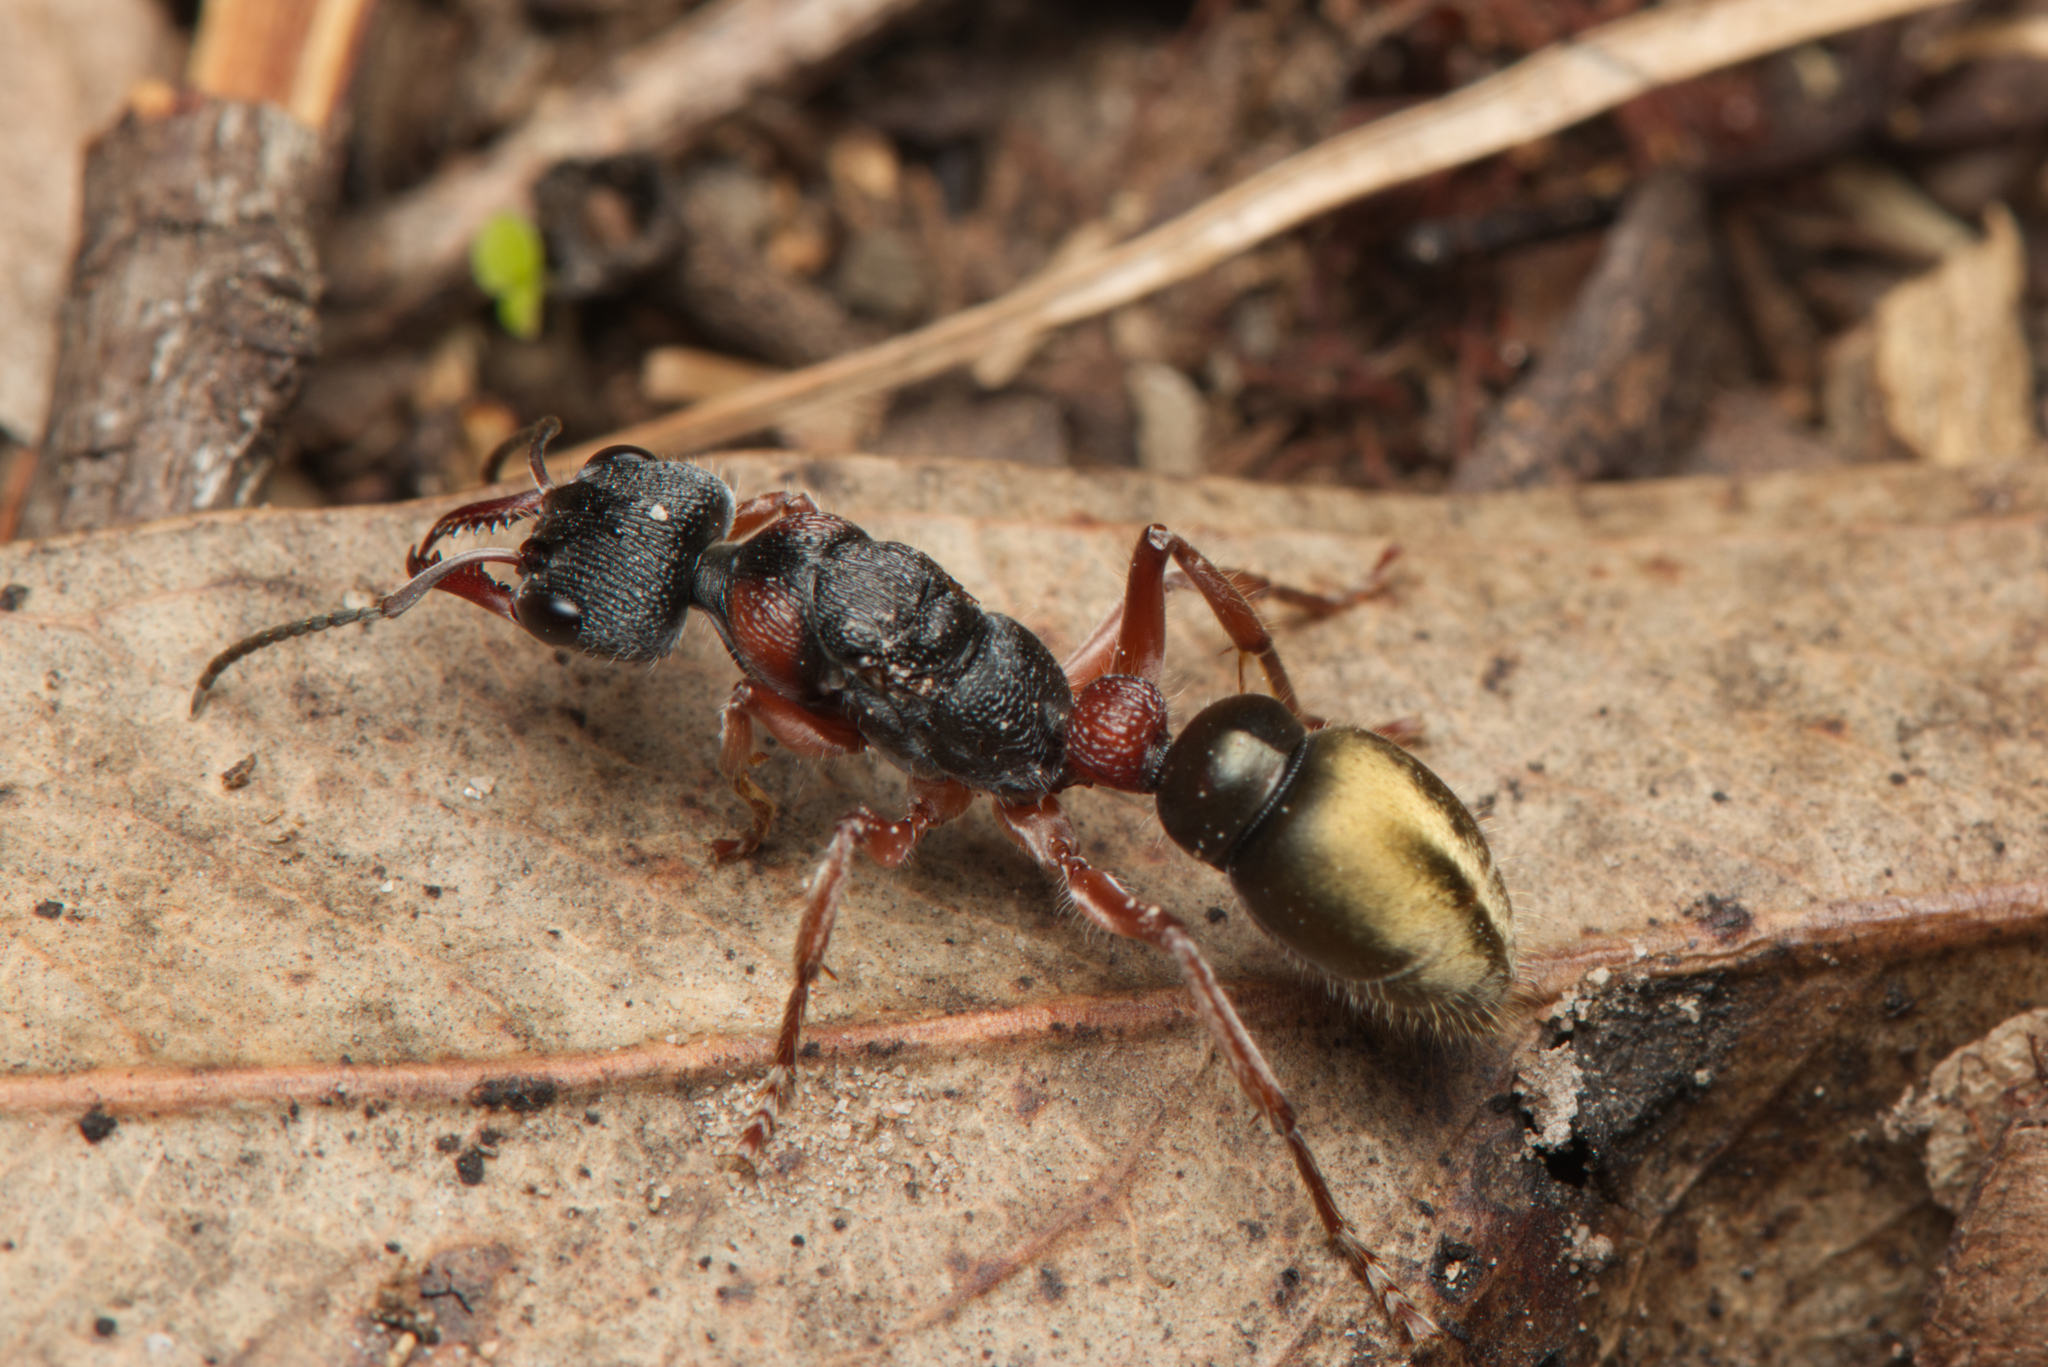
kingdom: Animalia
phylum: Arthropoda
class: Insecta
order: Hymenoptera
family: Formicidae
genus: Myrmecia
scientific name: Myrmecia chrysogaster
